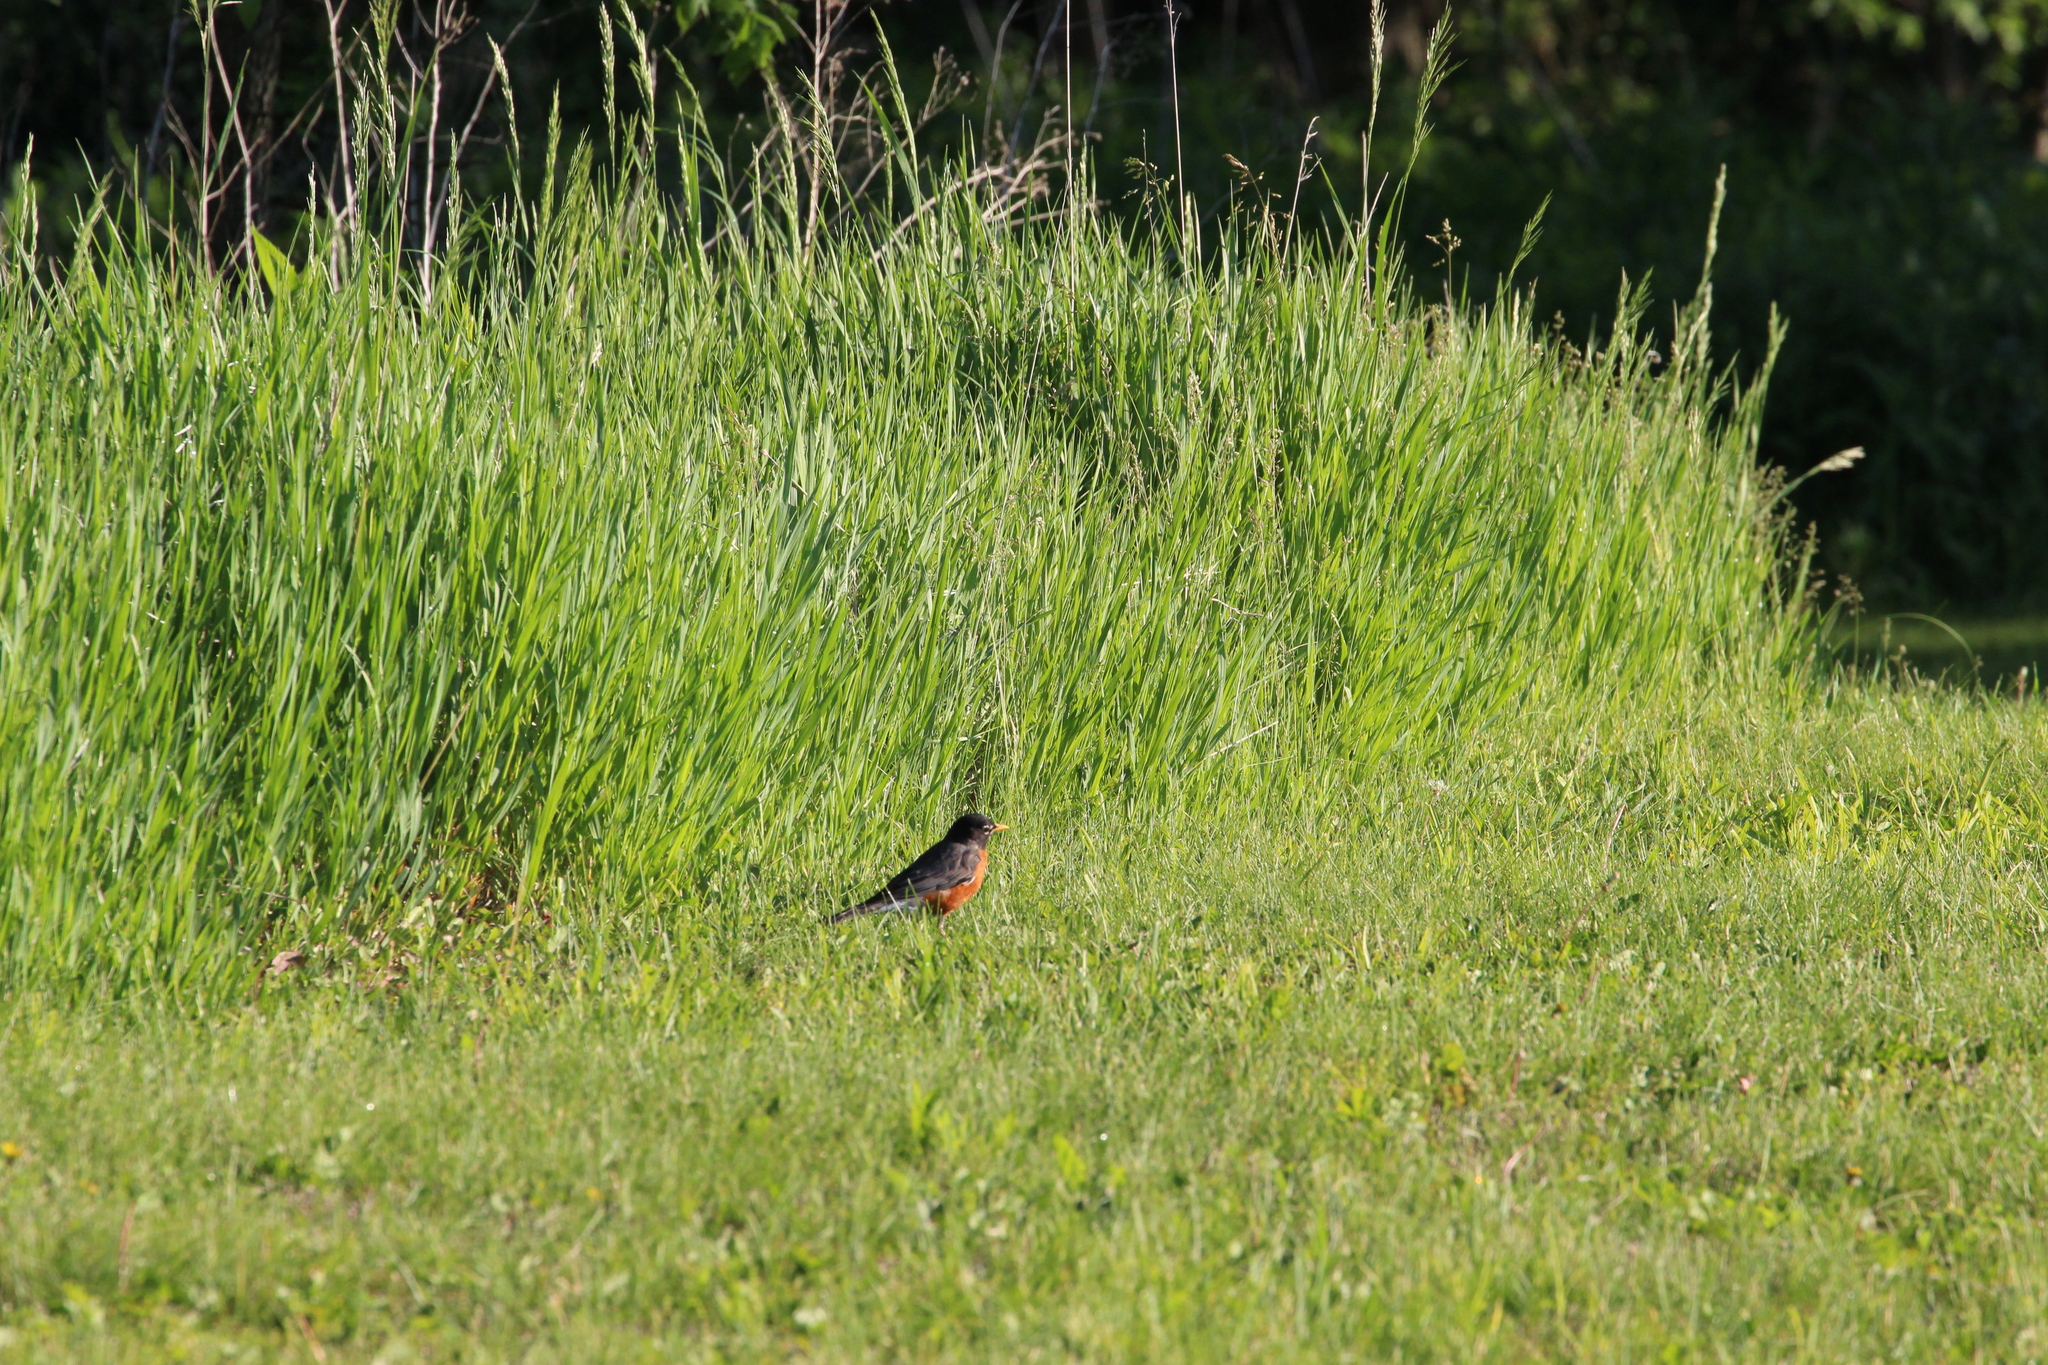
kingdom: Animalia
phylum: Chordata
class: Aves
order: Passeriformes
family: Turdidae
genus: Turdus
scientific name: Turdus migratorius
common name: American robin
